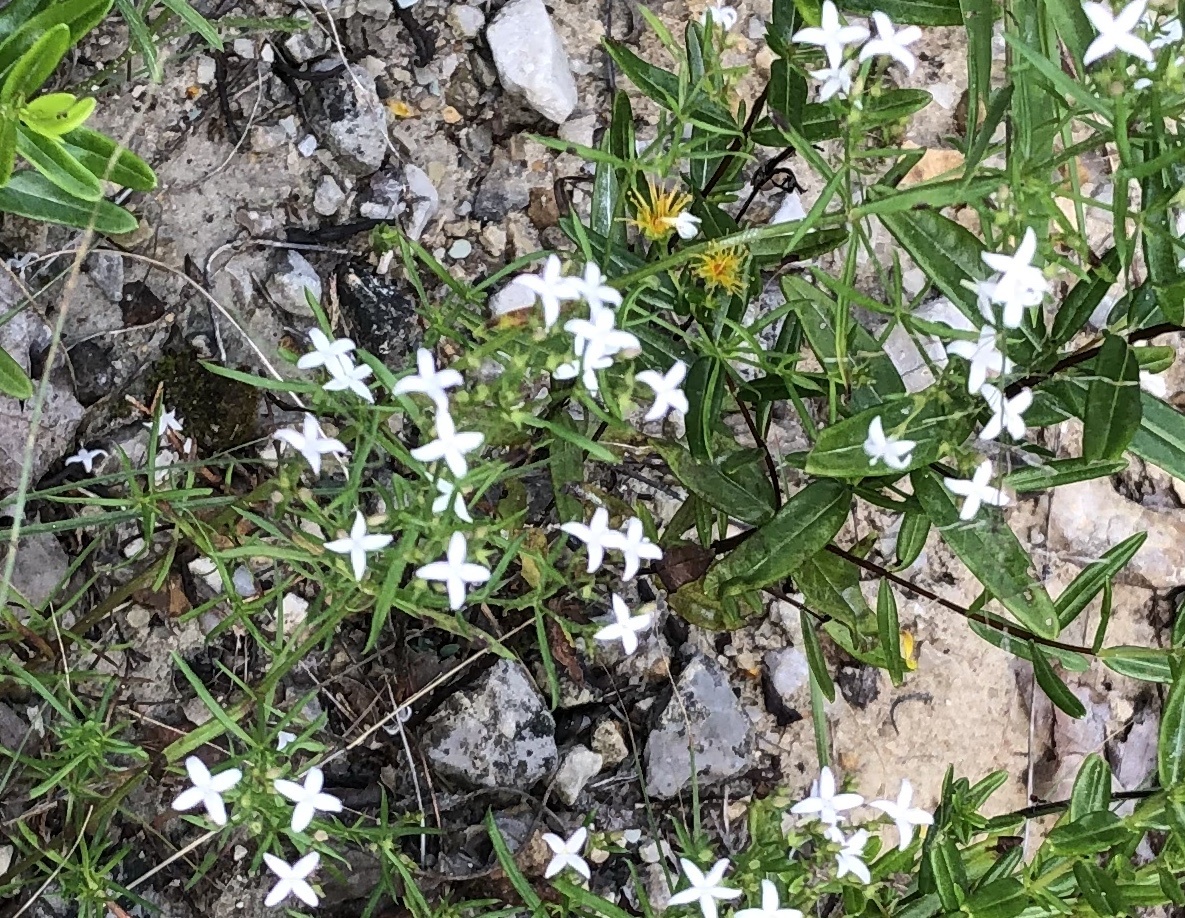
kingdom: Plantae
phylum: Tracheophyta
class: Magnoliopsida
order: Gentianales
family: Rubiaceae
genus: Stenaria
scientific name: Stenaria nigricans
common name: Diamondflowers
